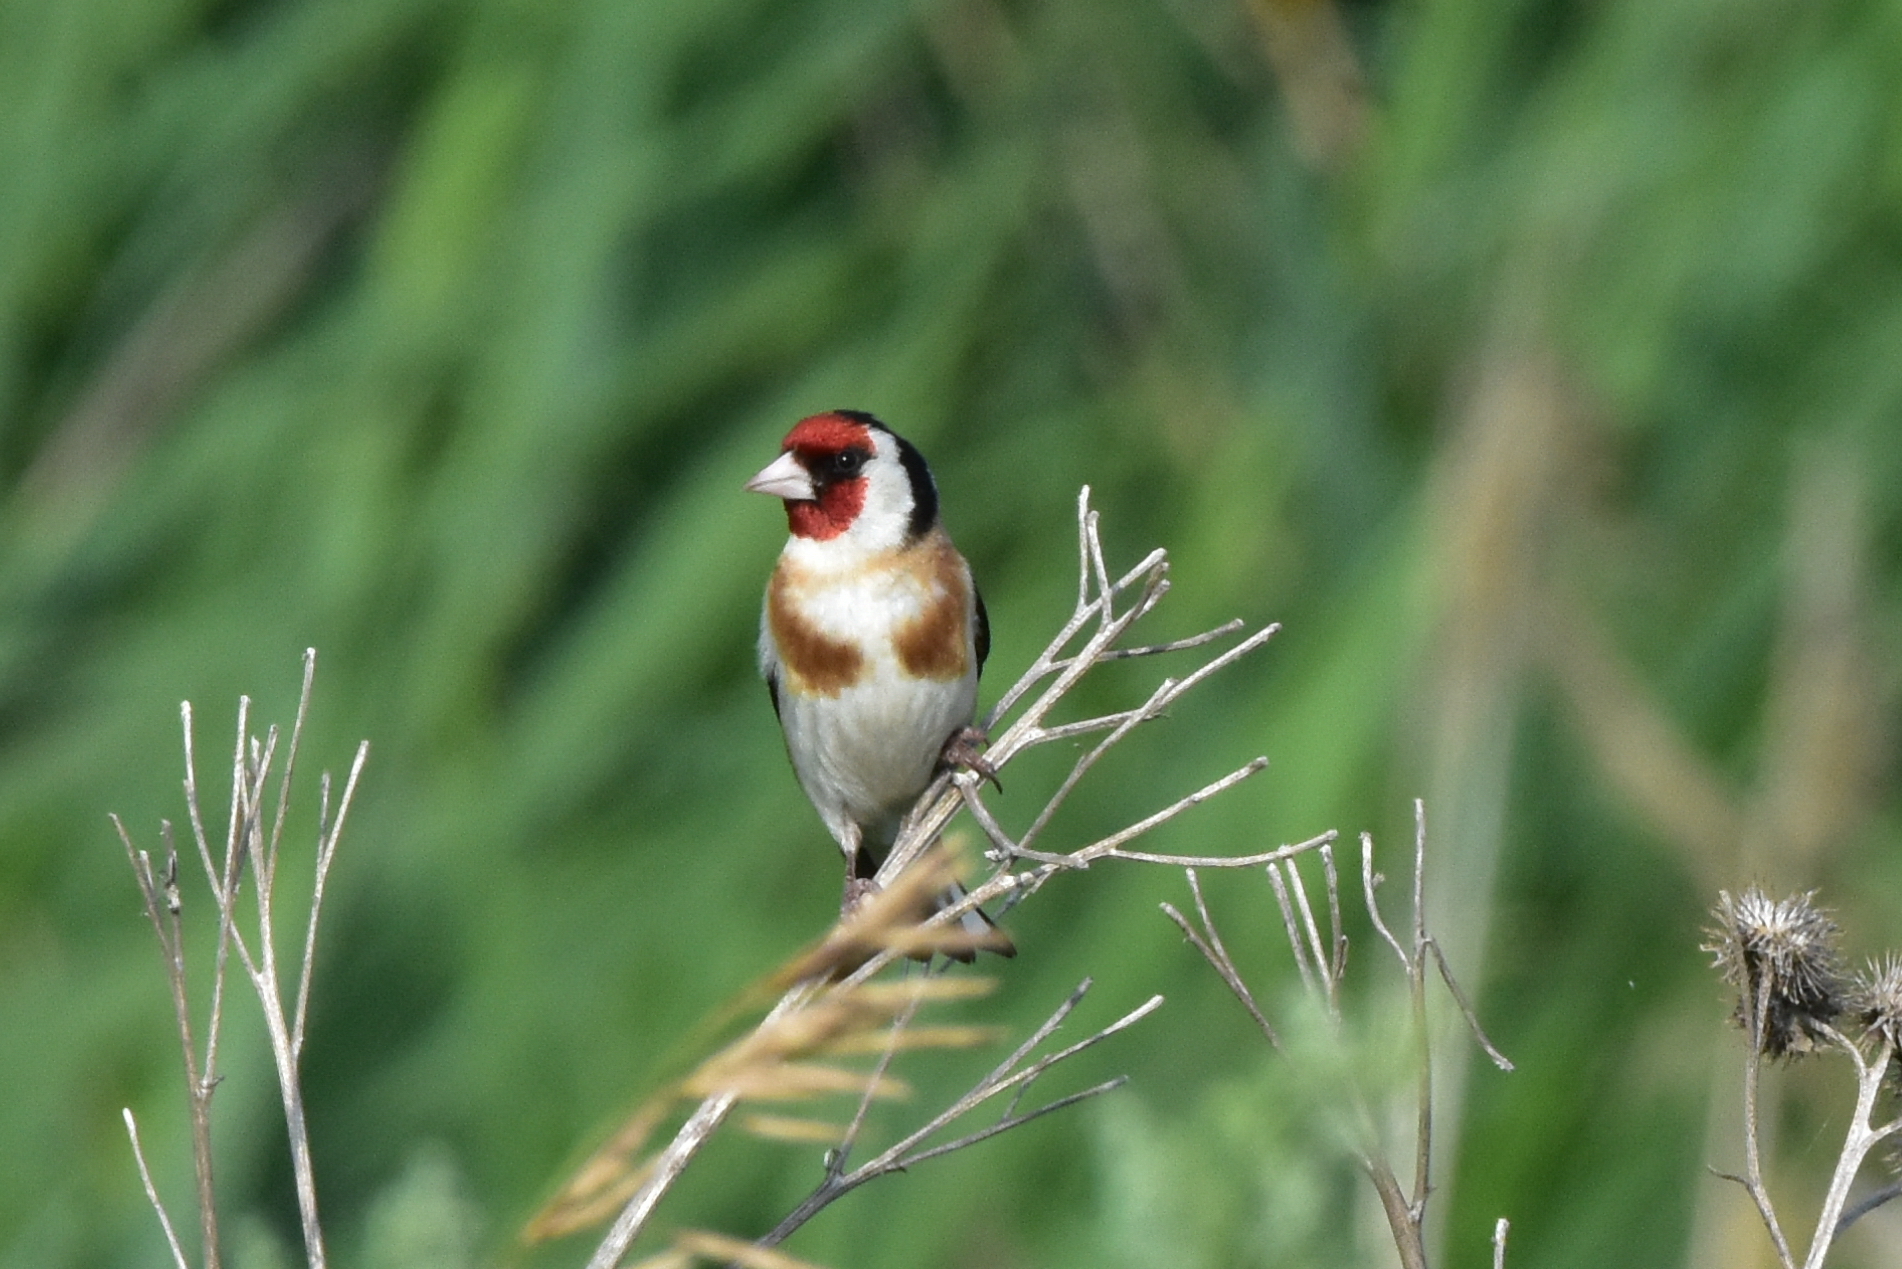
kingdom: Animalia
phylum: Chordata
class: Aves
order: Passeriformes
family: Fringillidae
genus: Carduelis
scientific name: Carduelis carduelis
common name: European goldfinch
